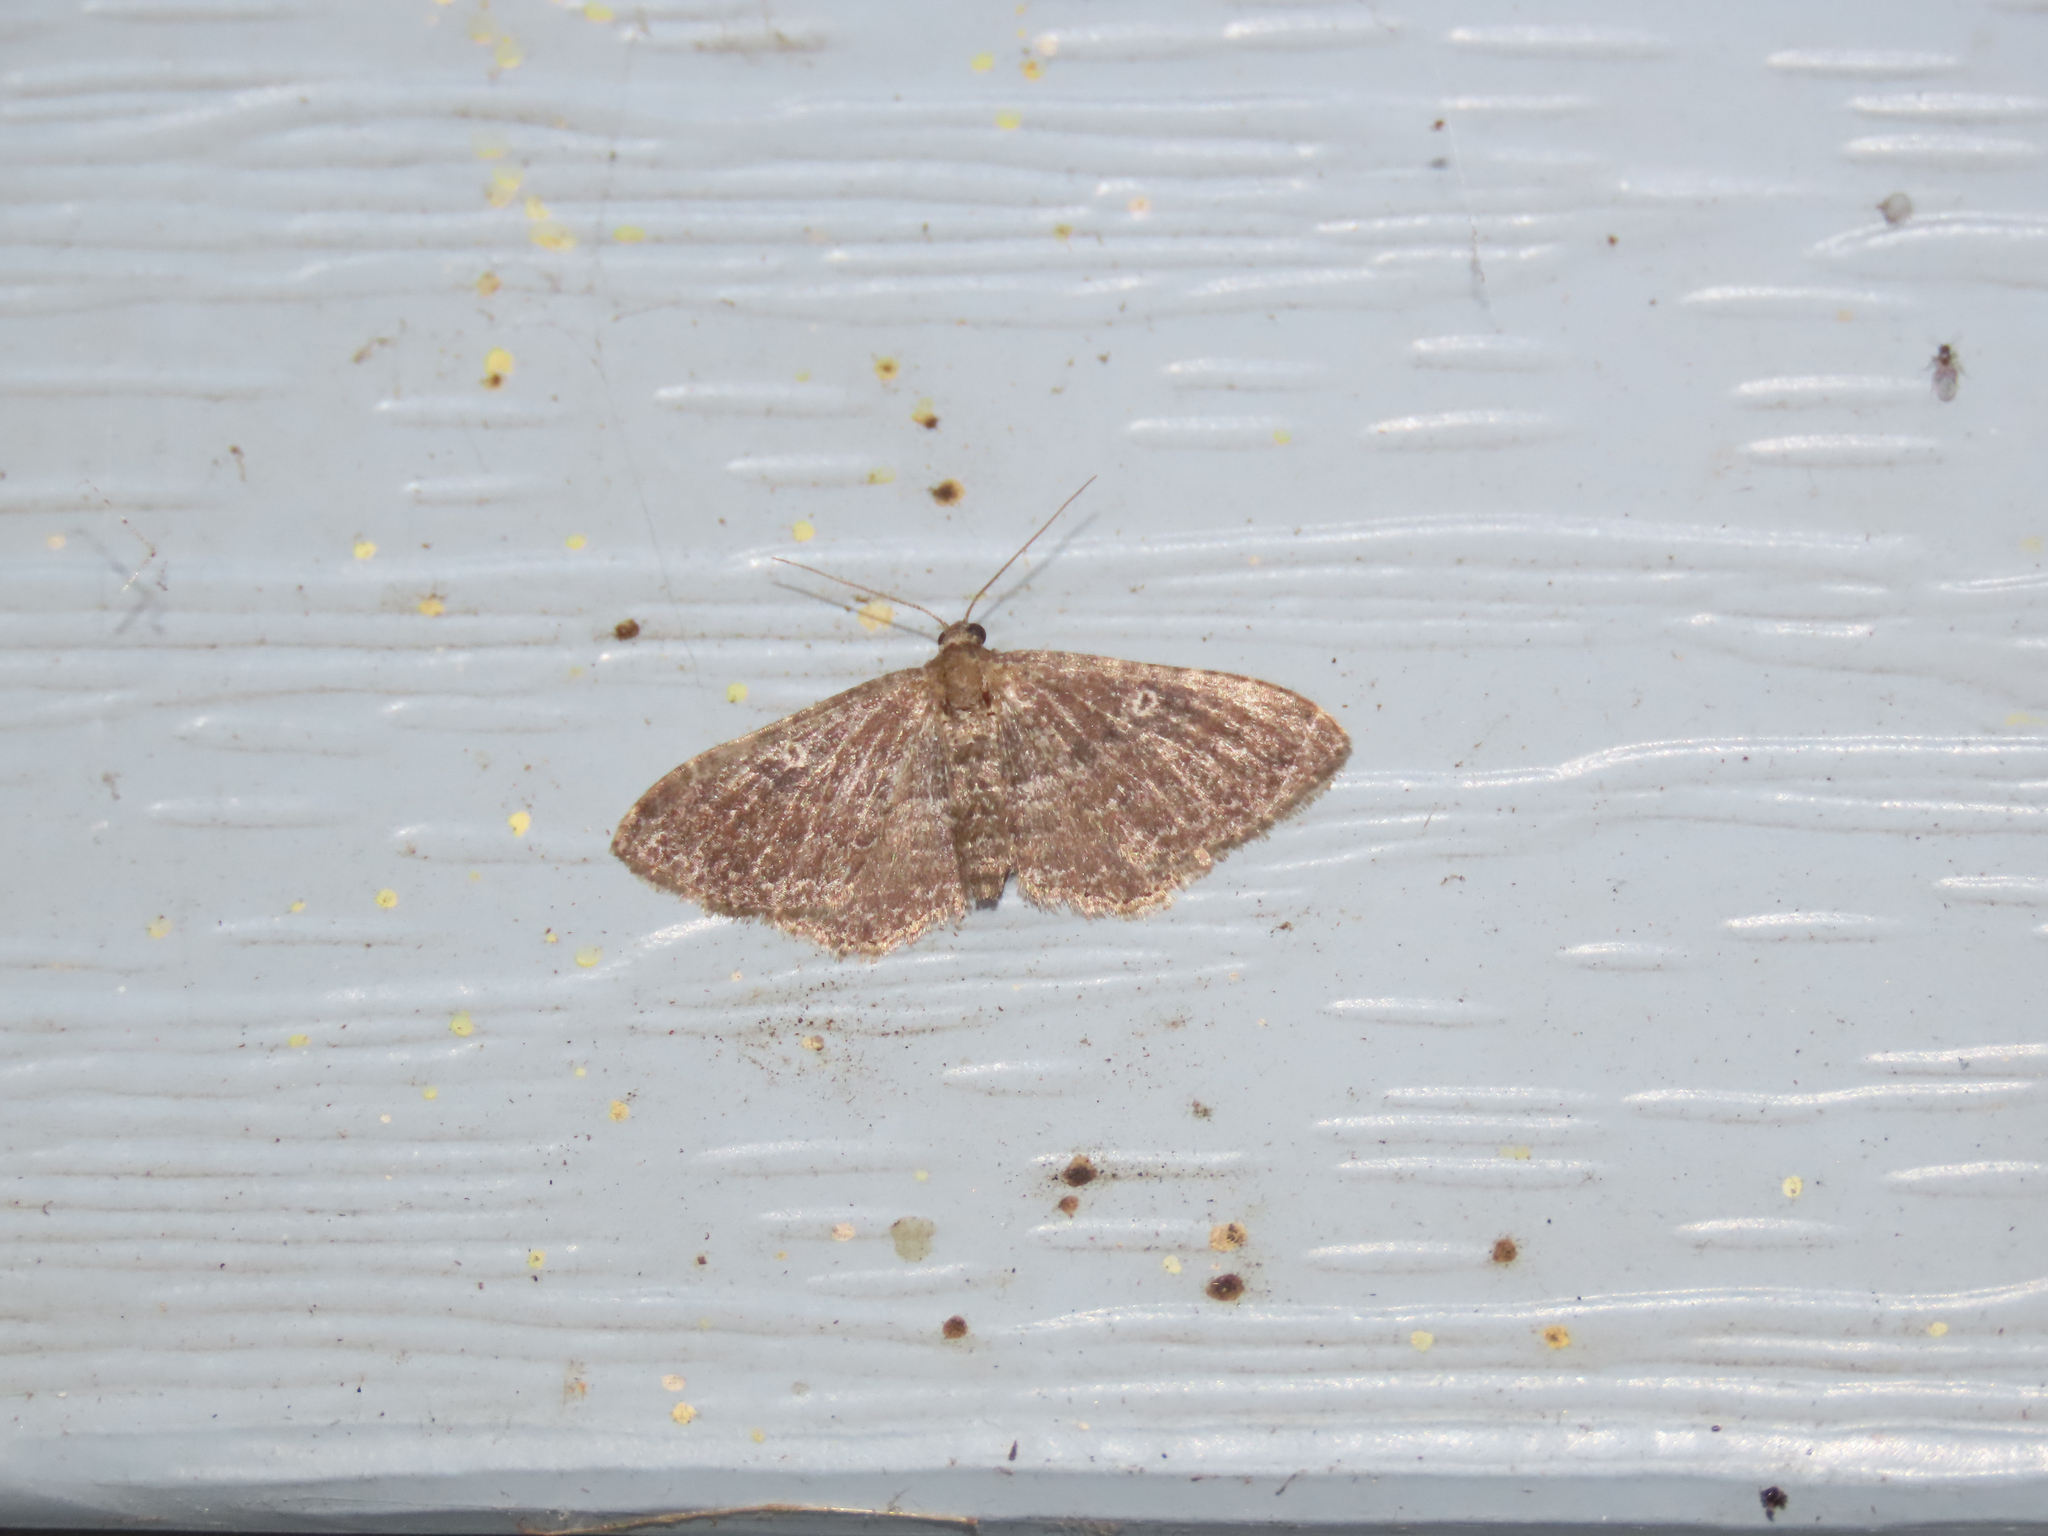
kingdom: Animalia
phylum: Arthropoda
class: Insecta
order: Lepidoptera
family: Geometridae
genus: Orthonama
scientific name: Orthonama obstipata
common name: The gem
